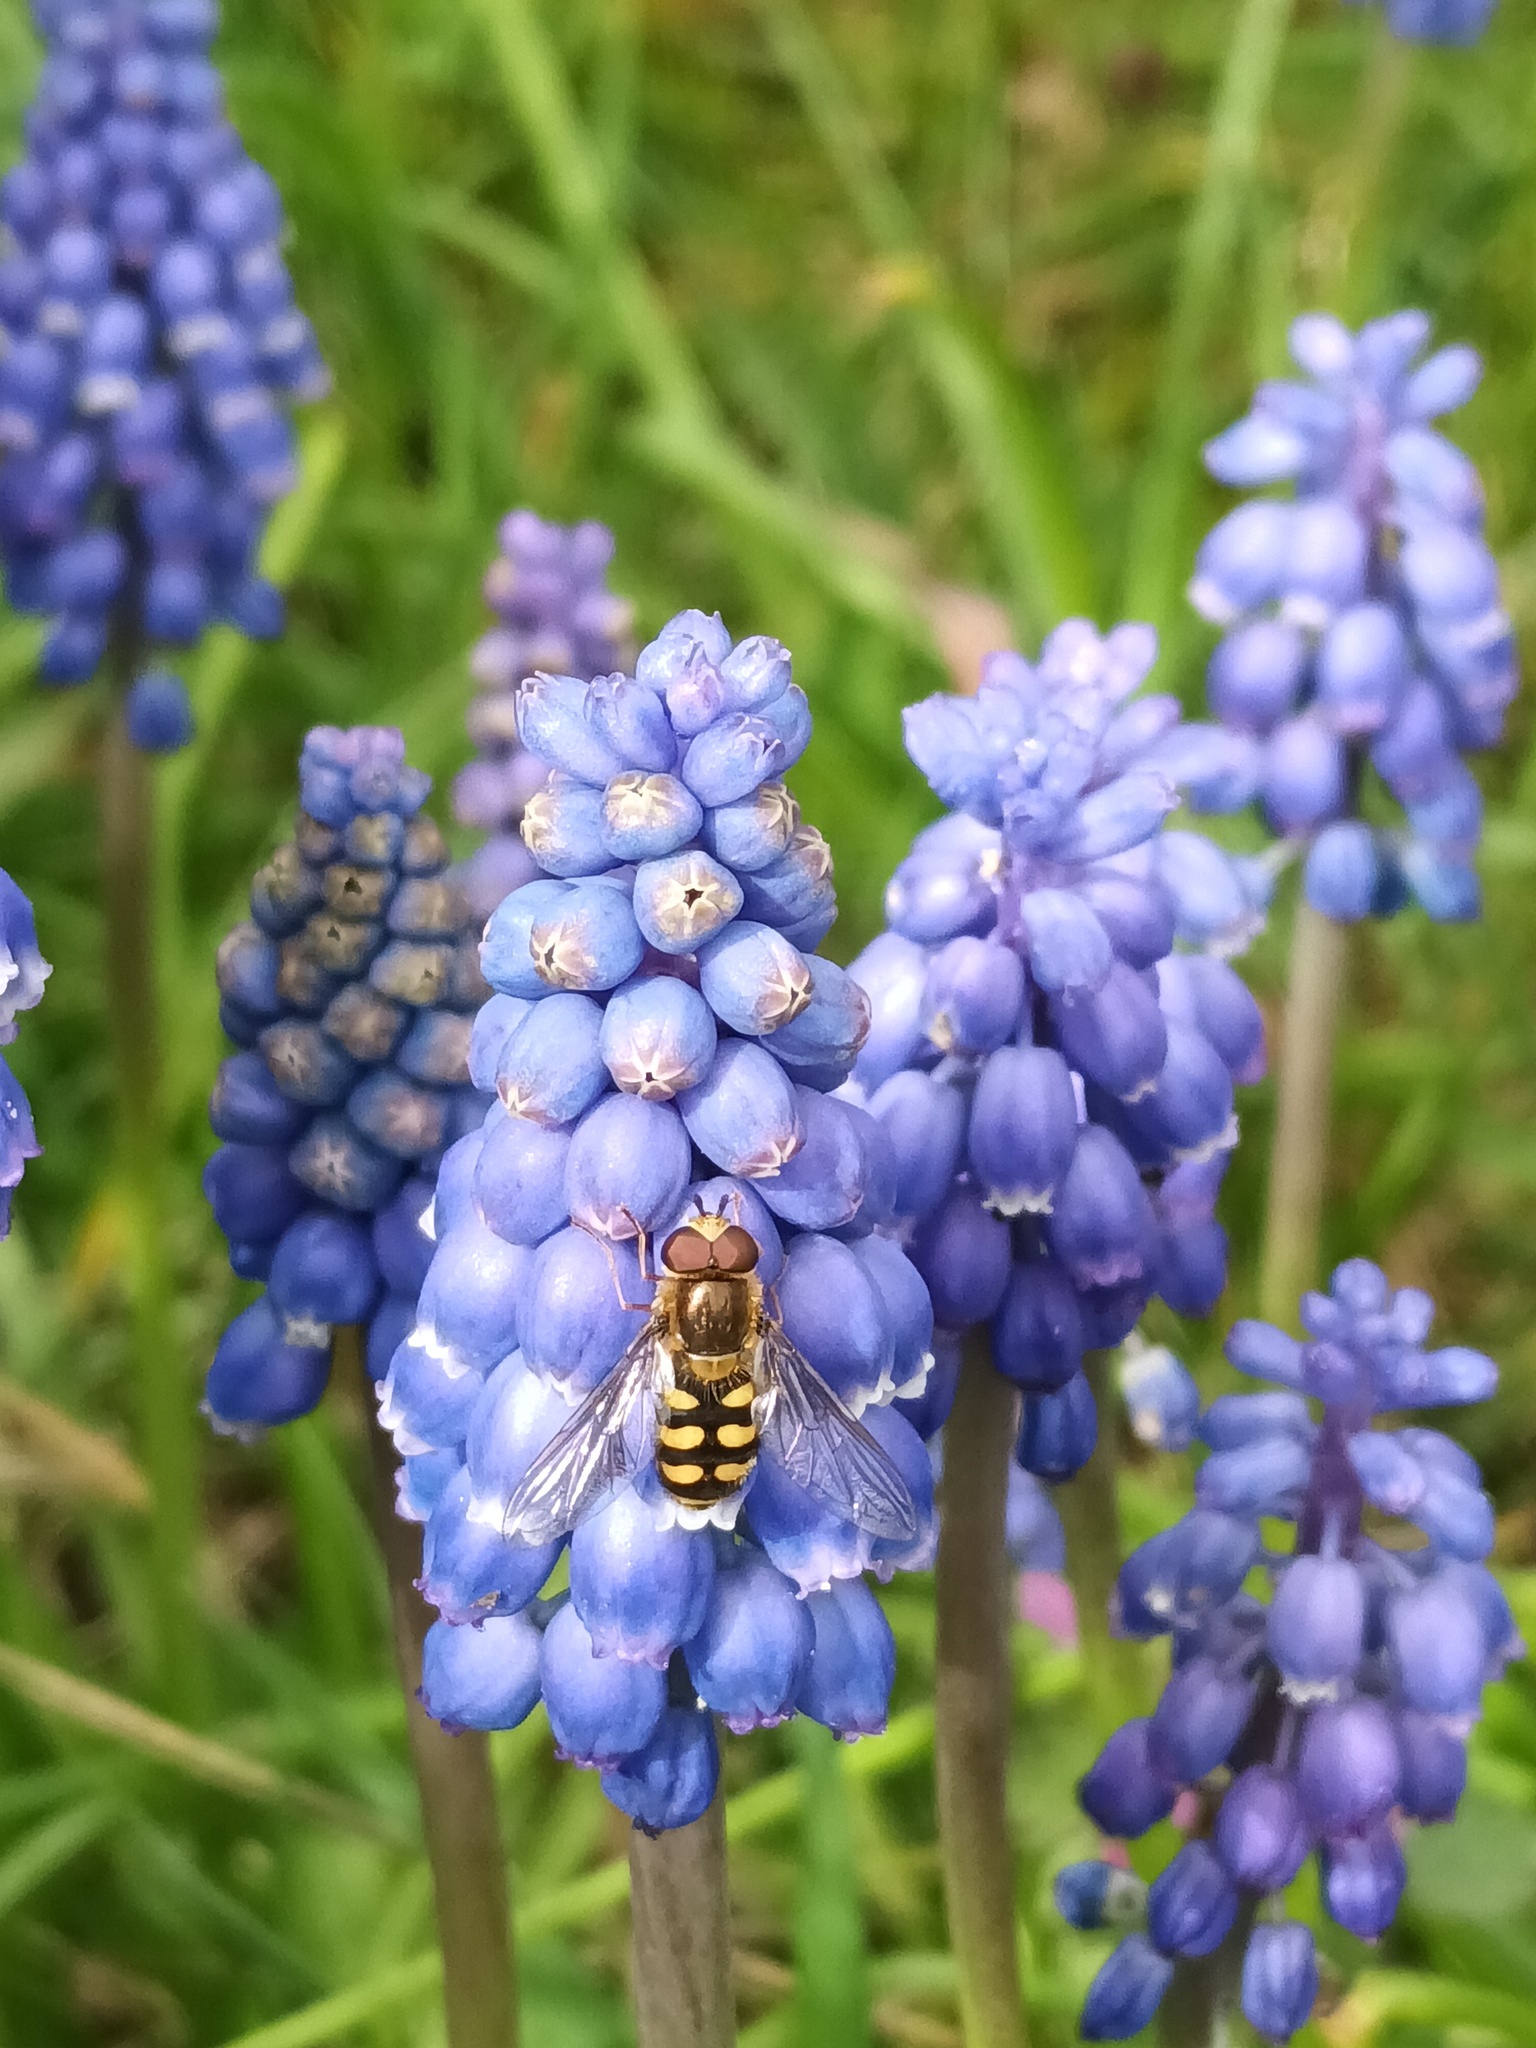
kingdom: Animalia
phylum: Arthropoda
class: Insecta
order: Diptera
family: Syrphidae
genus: Eupeodes
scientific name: Eupeodes
